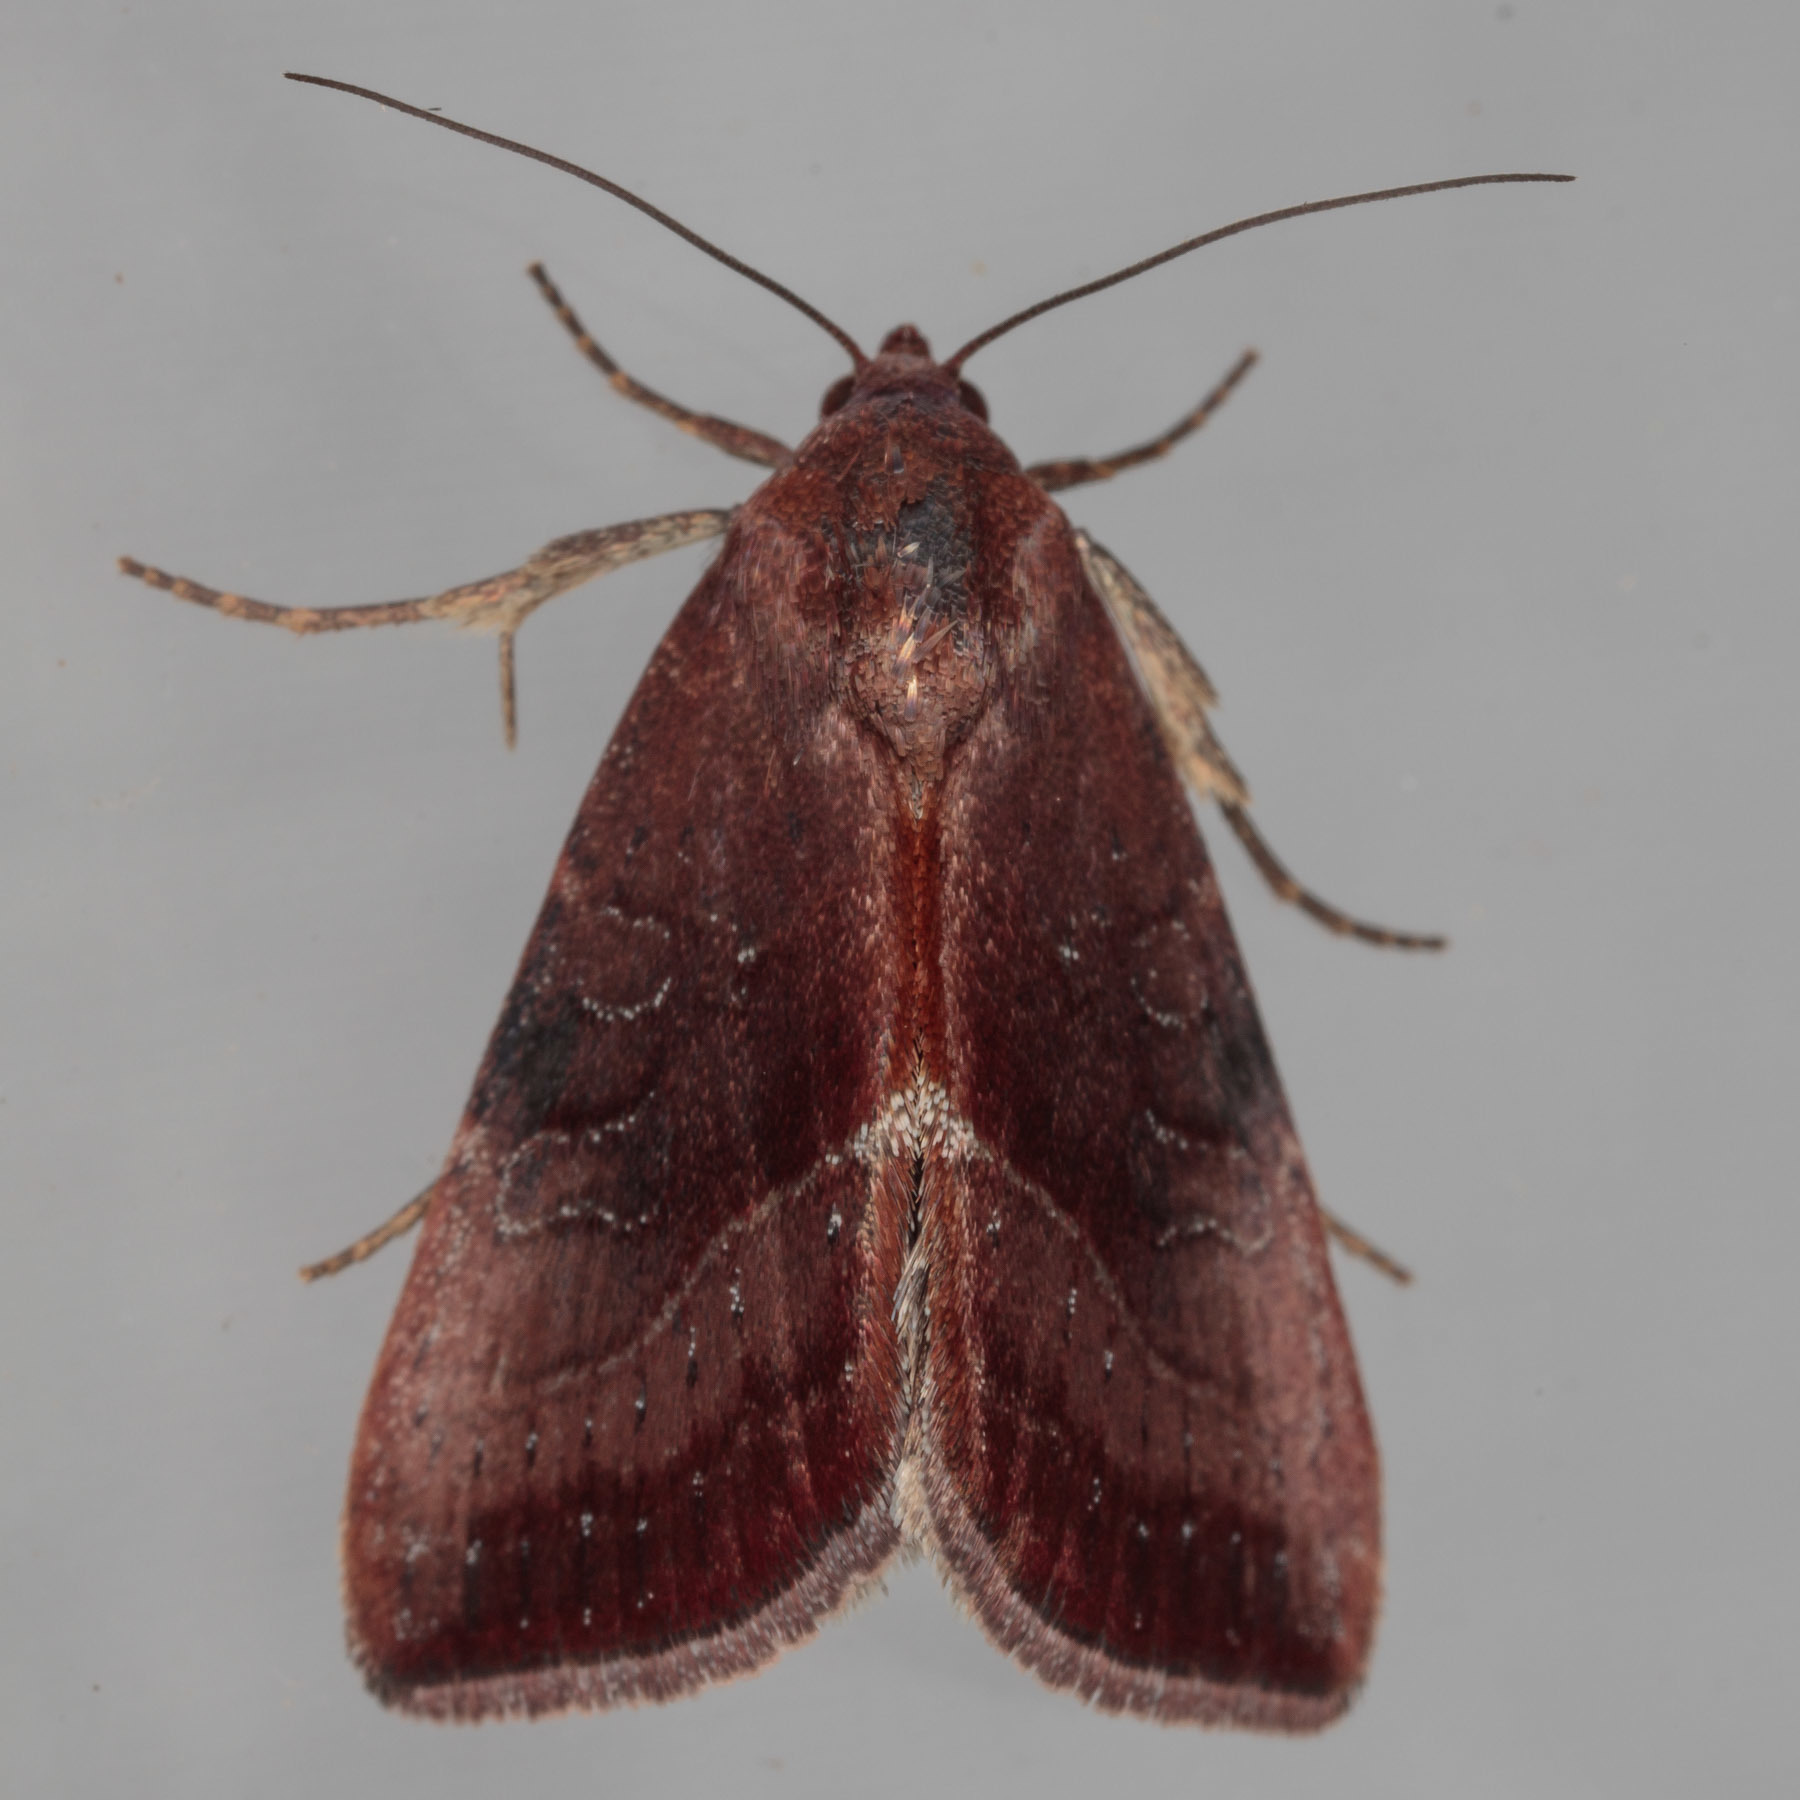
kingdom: Animalia
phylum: Arthropoda
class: Insecta
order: Lepidoptera
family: Noctuidae
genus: Galgula
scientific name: Galgula partita
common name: Wedgeling
